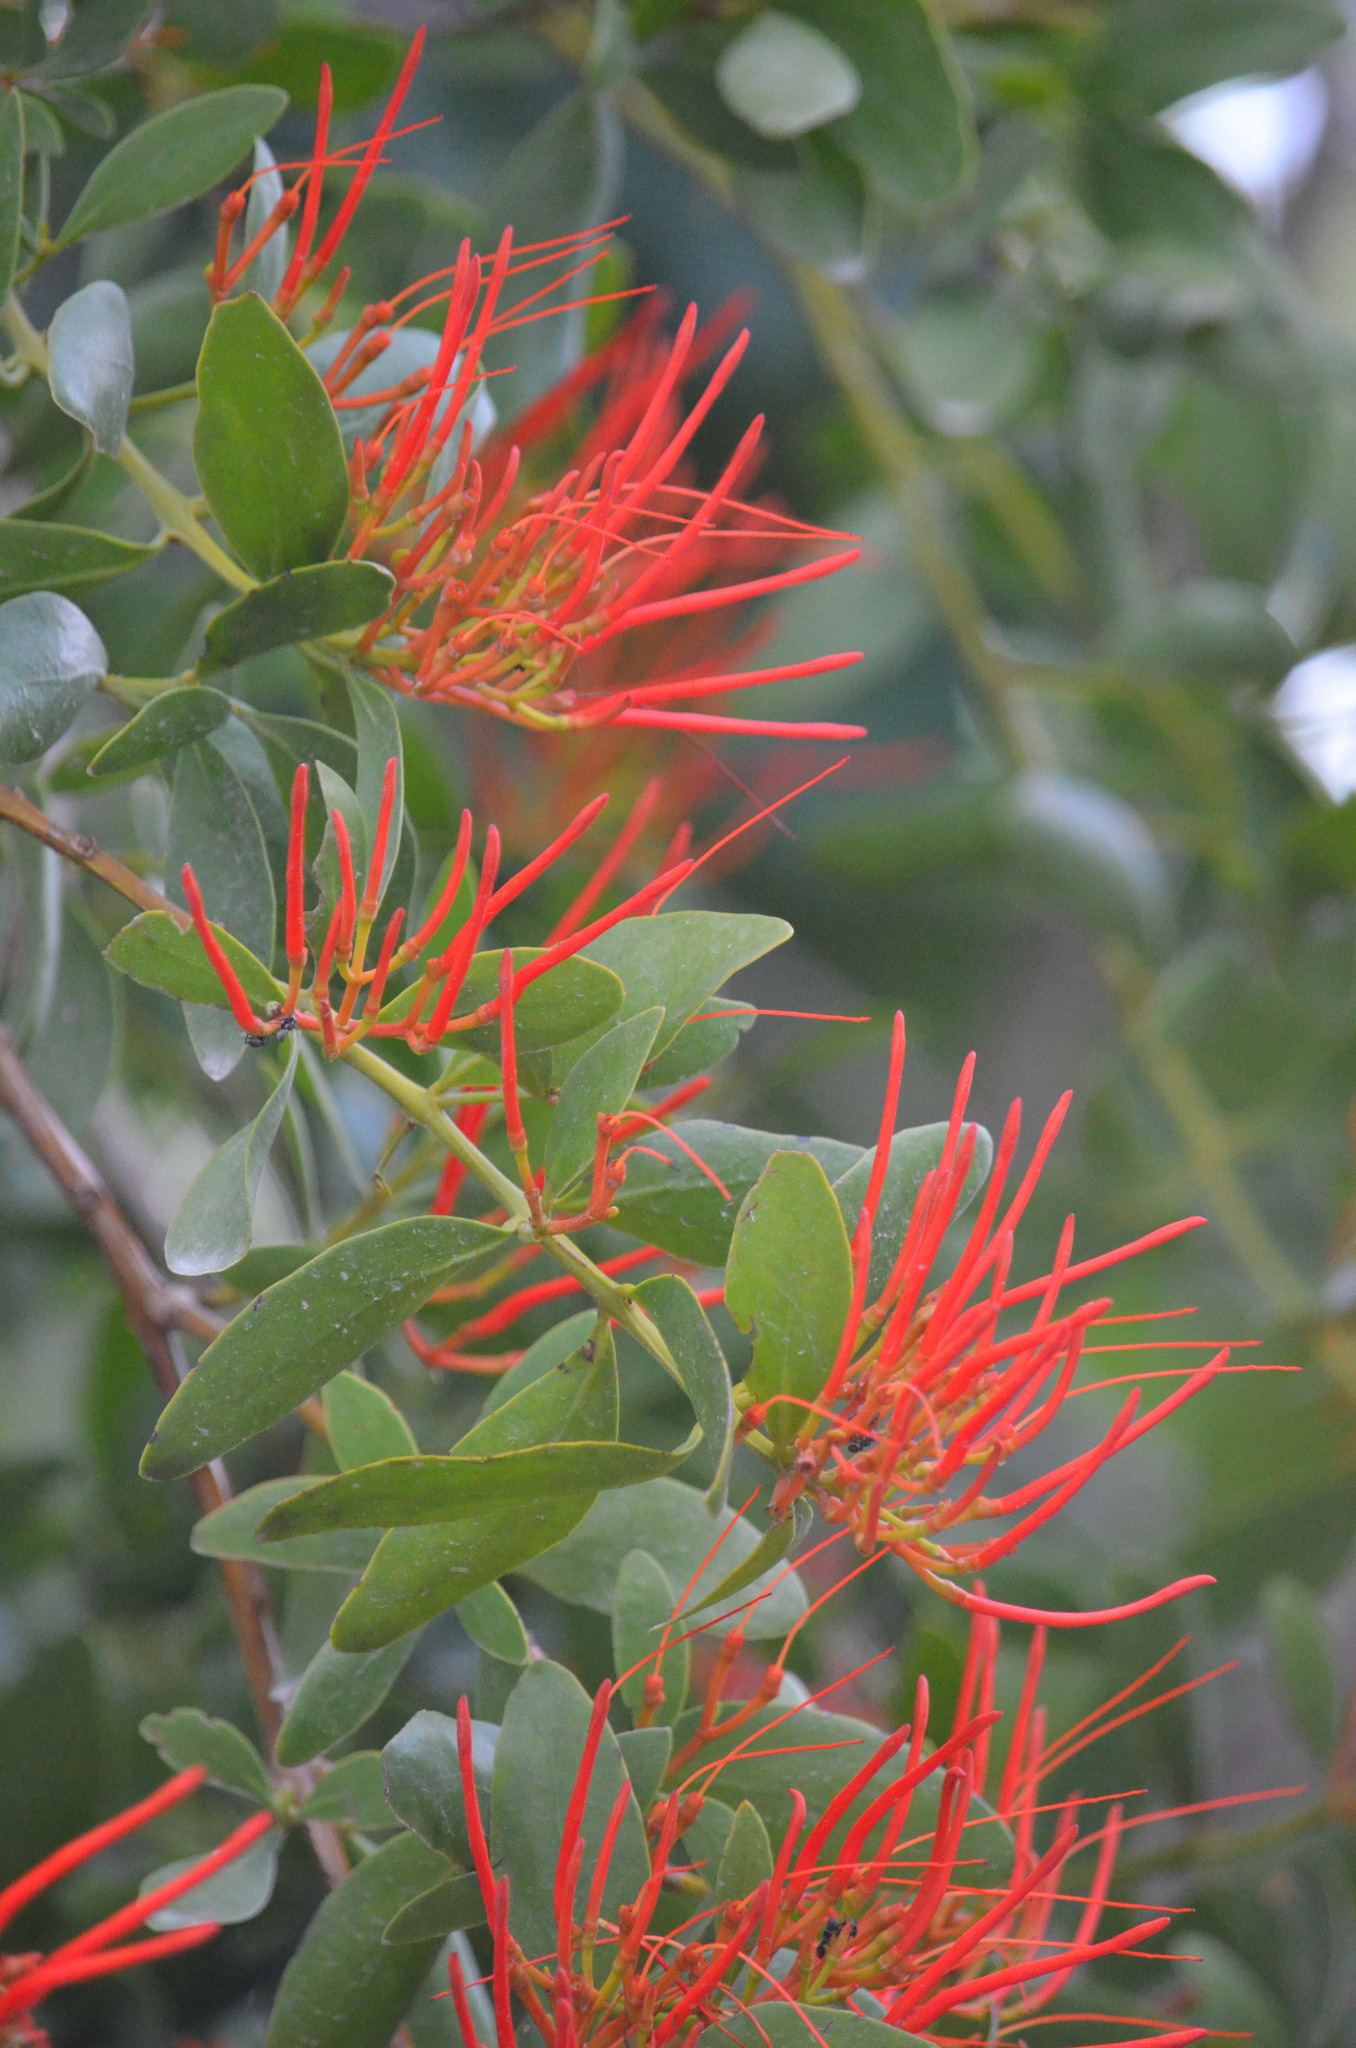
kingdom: Plantae
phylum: Tracheophyta
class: Magnoliopsida
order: Santalales
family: Loranthaceae
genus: Psittacanthus
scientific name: Psittacanthus schiedeanus
